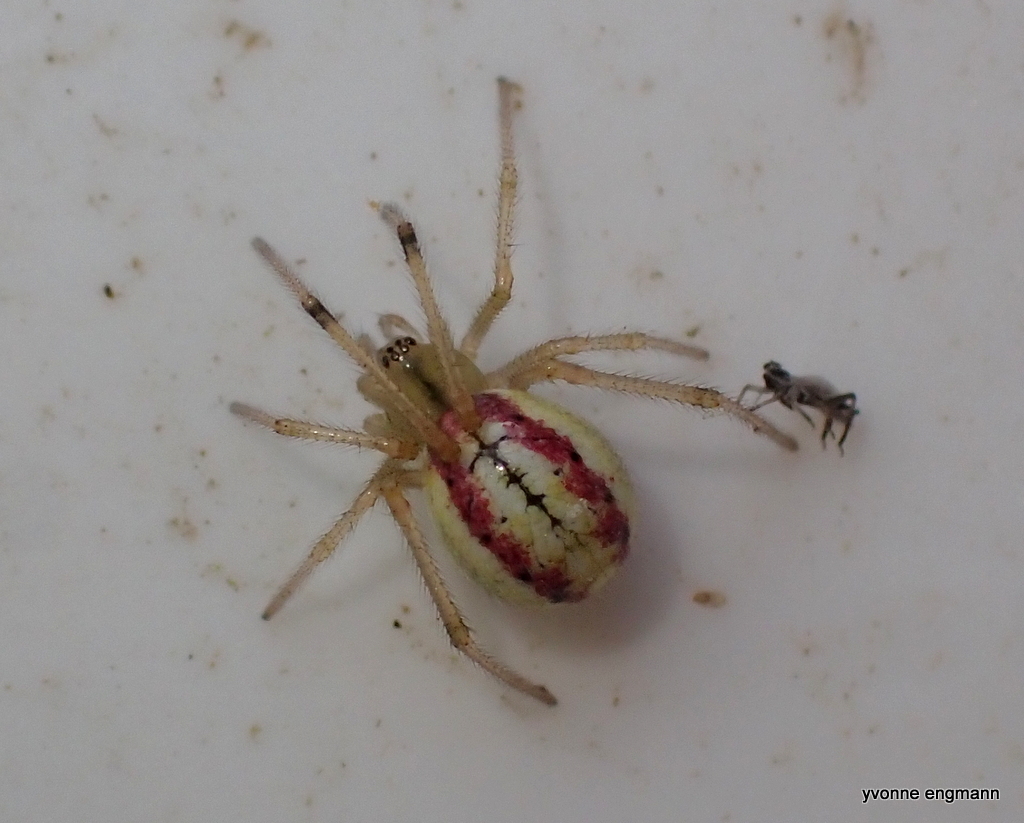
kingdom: Animalia
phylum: Arthropoda
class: Arachnida
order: Araneae
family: Theridiidae
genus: Enoplognatha
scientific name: Enoplognatha ovata
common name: Common candy-striped spider
